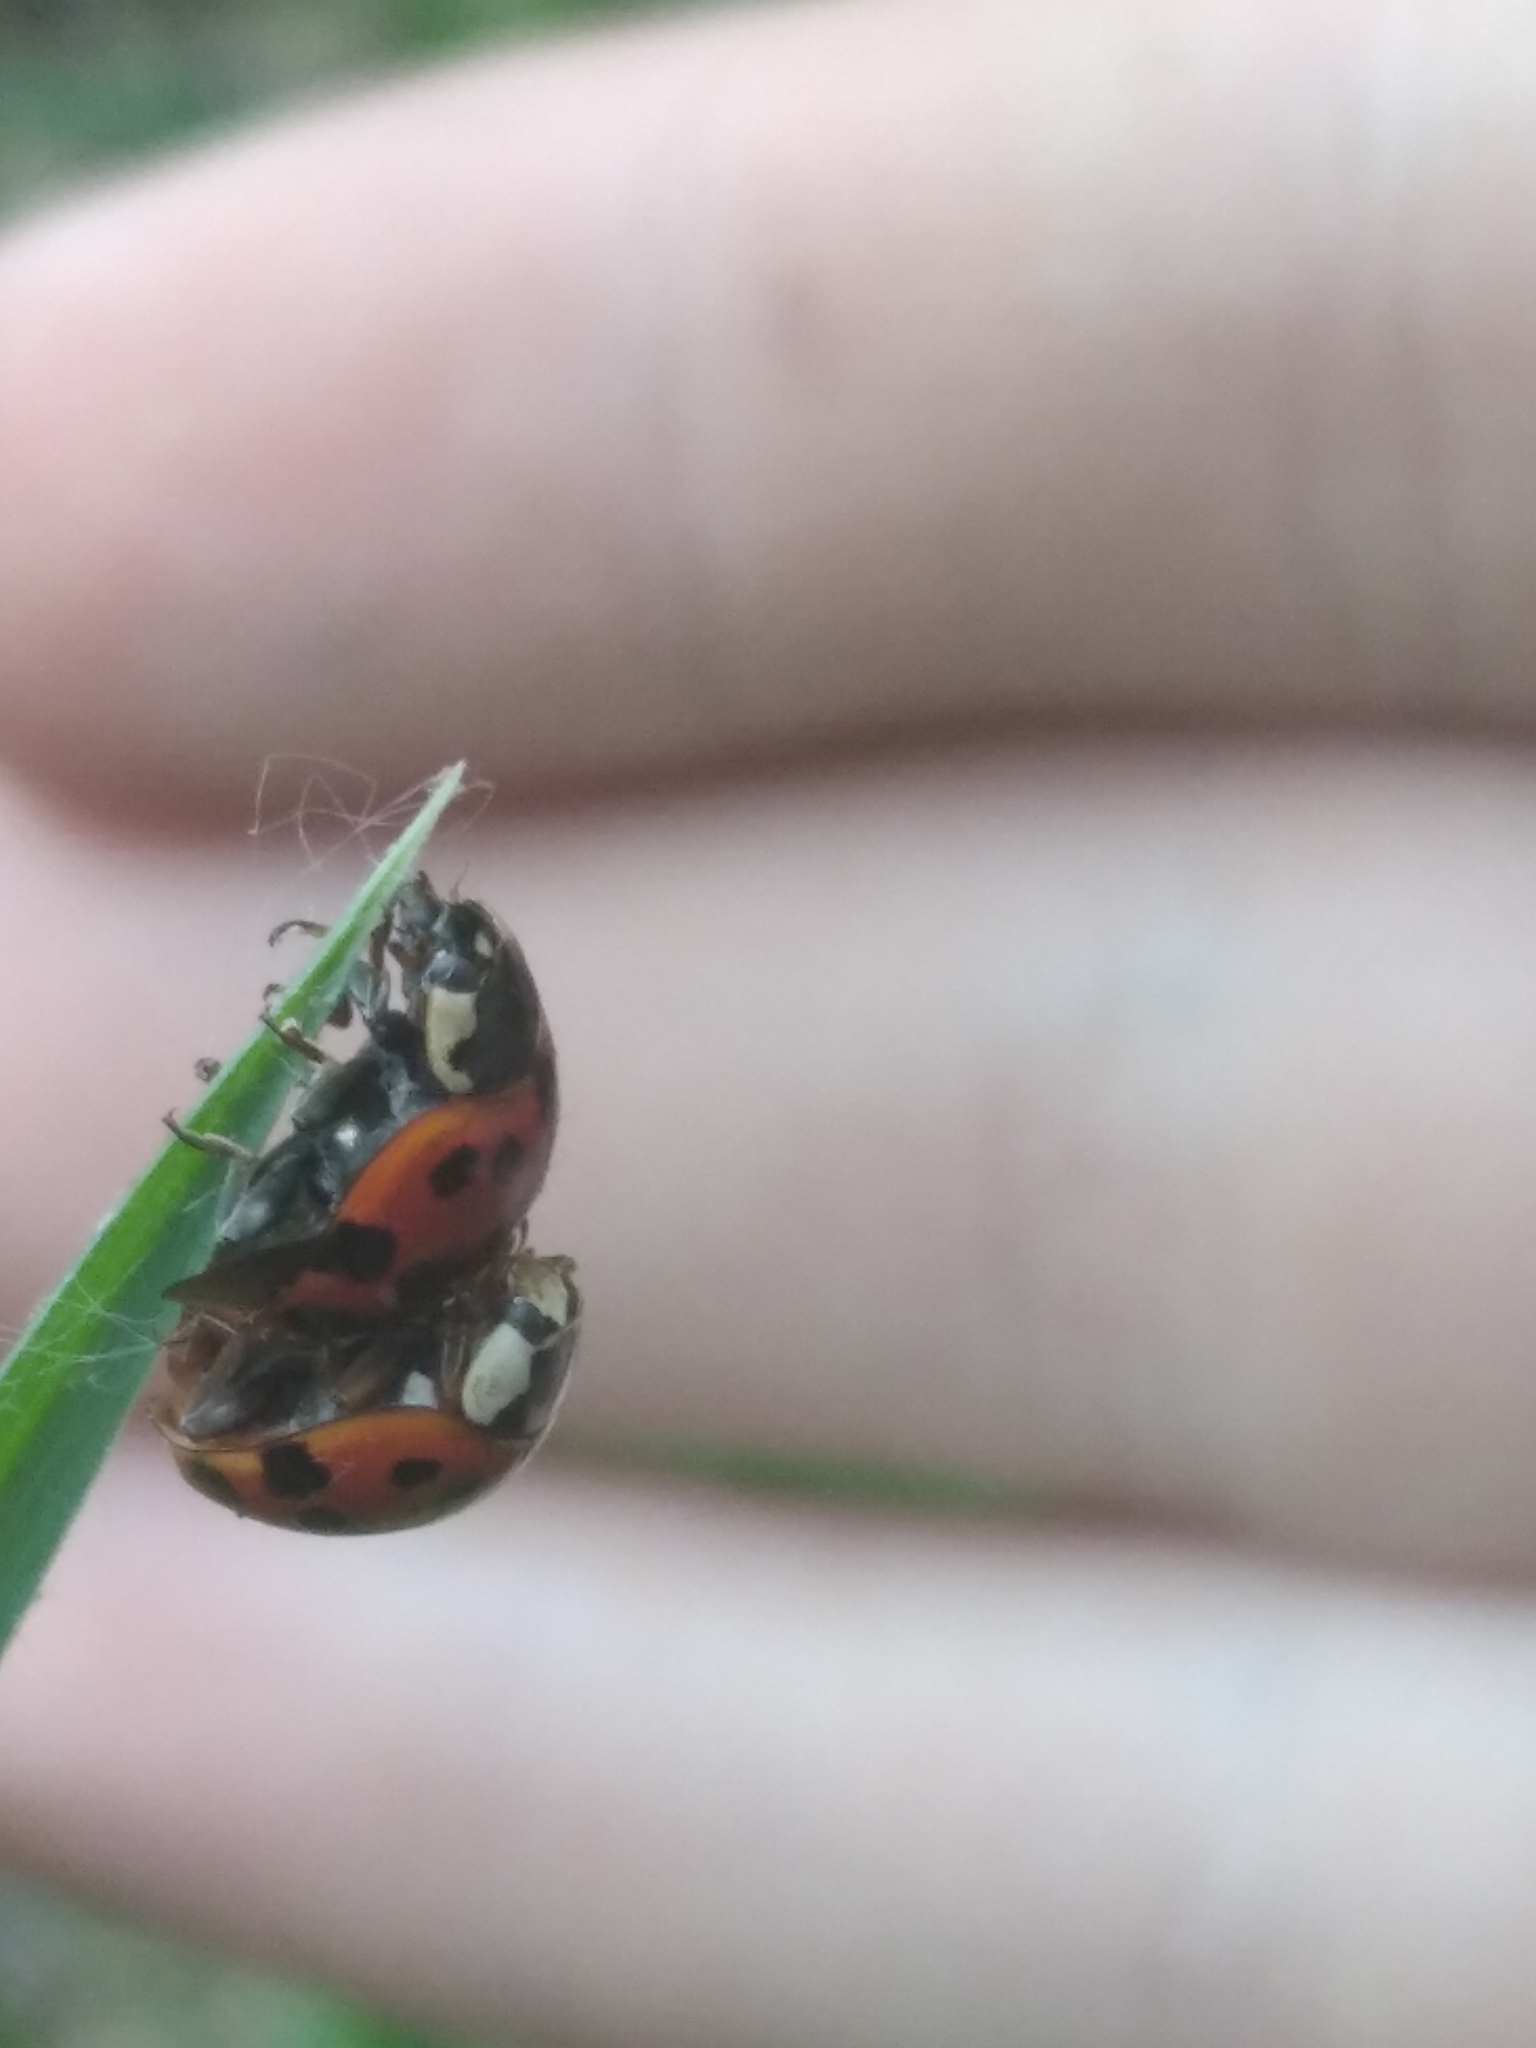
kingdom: Animalia
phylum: Arthropoda
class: Insecta
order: Coleoptera
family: Coccinellidae
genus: Harmonia
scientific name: Harmonia axyridis
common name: Harlequin ladybird
